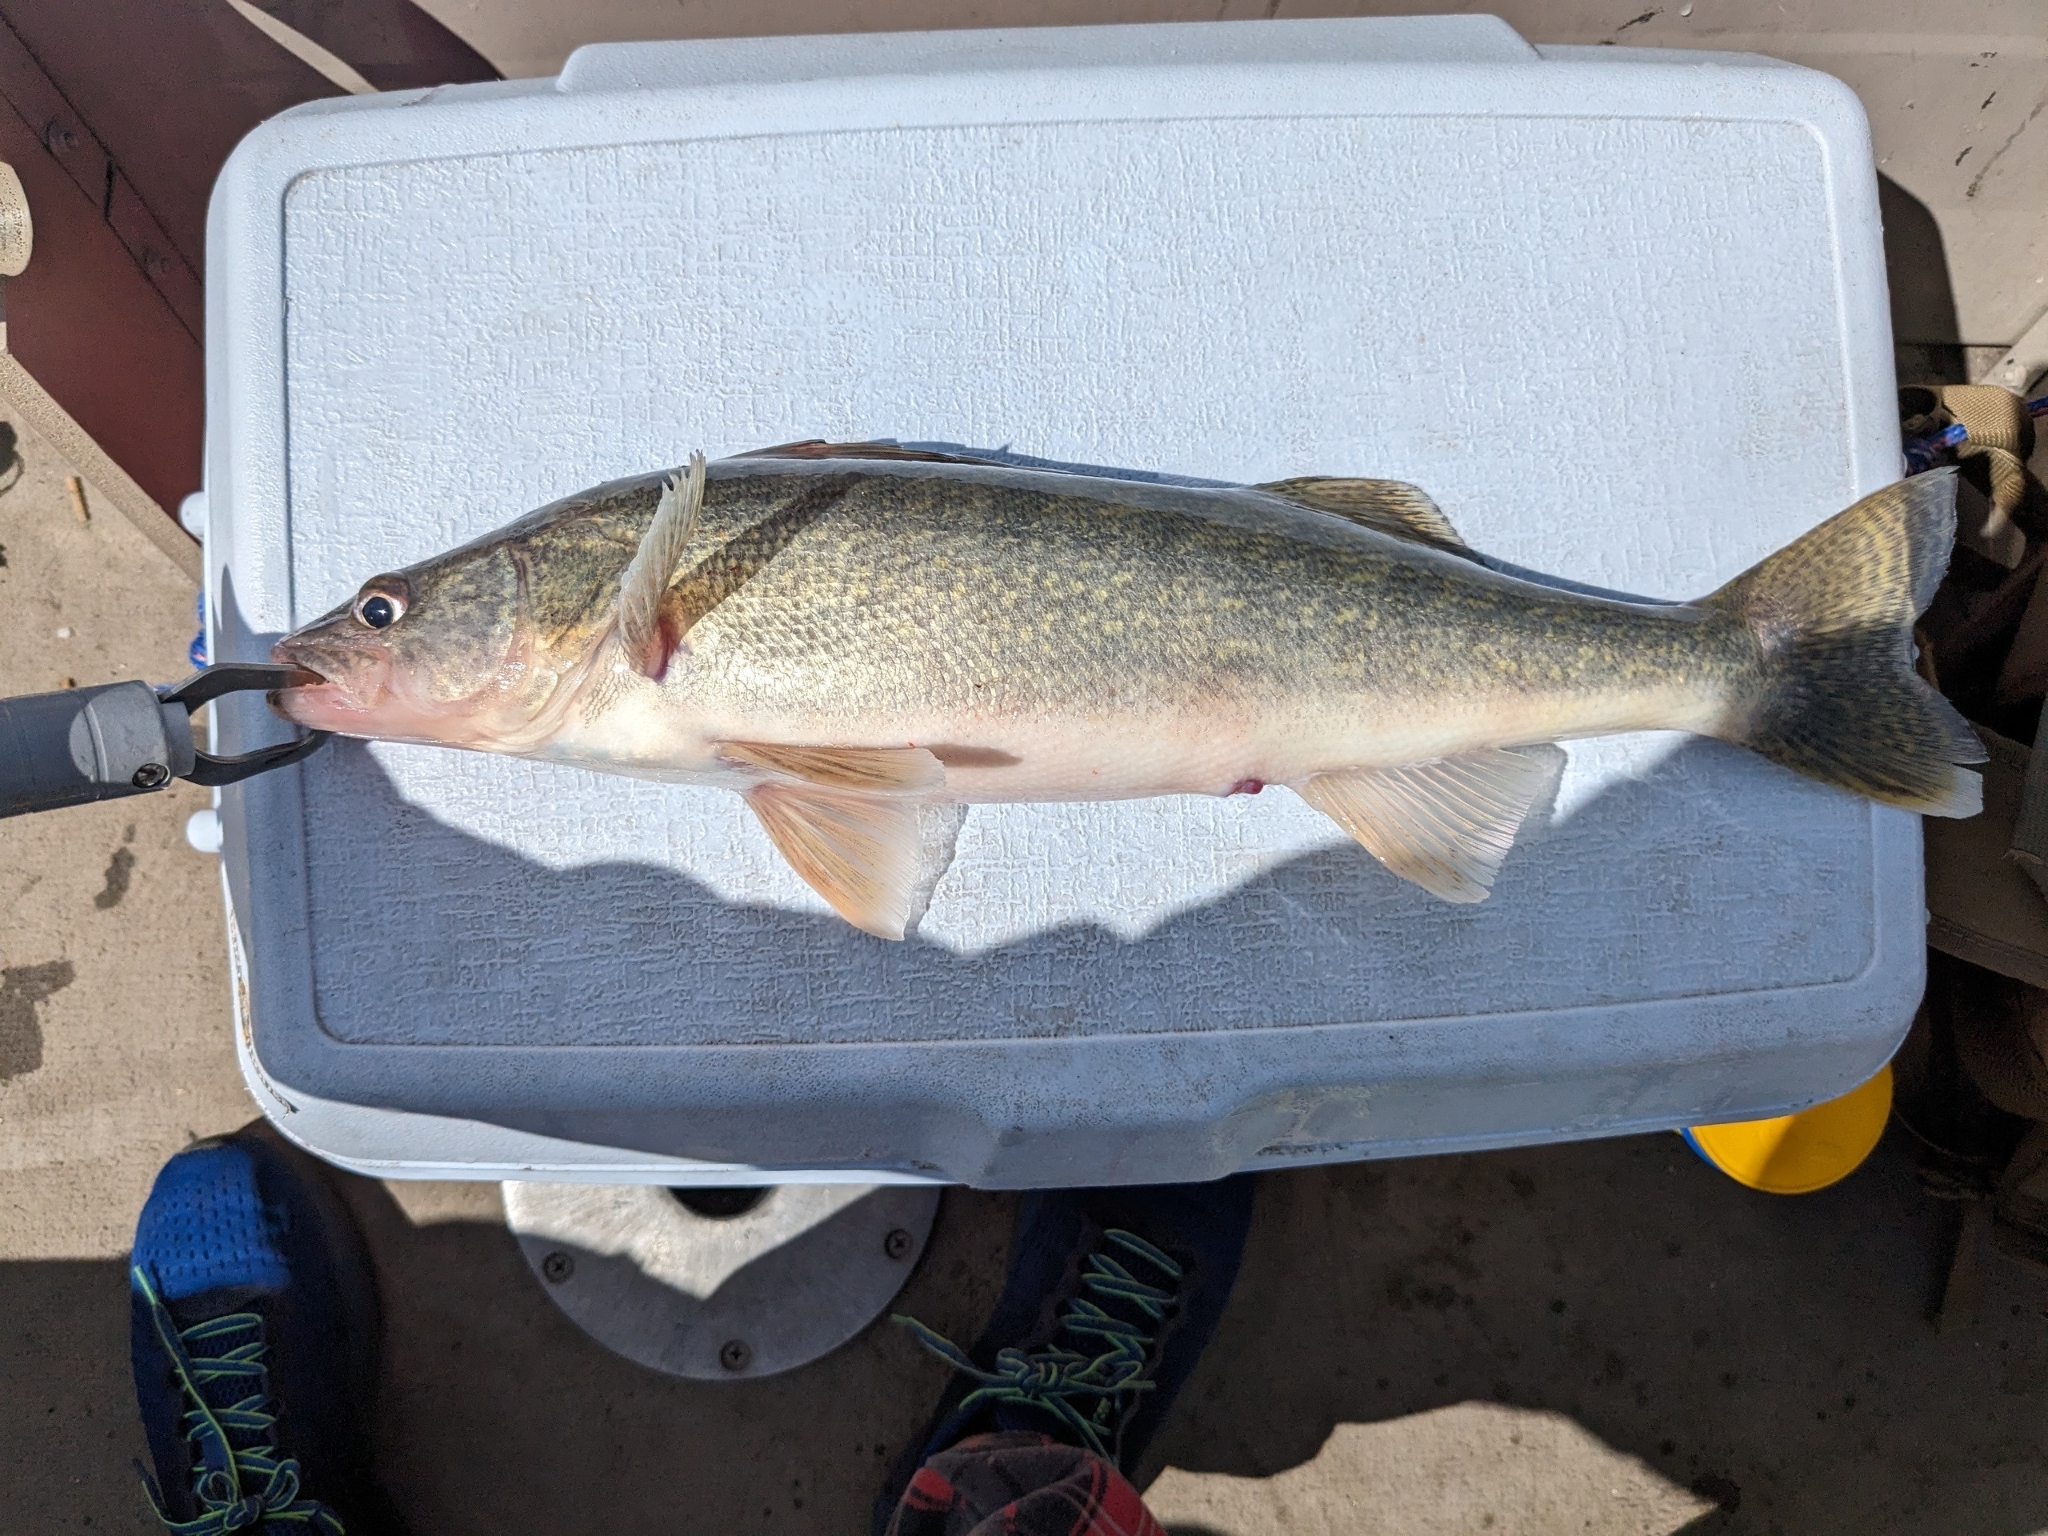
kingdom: Animalia
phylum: Chordata
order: Perciformes
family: Percidae
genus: Sander
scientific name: Sander vitreus
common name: Walleye
